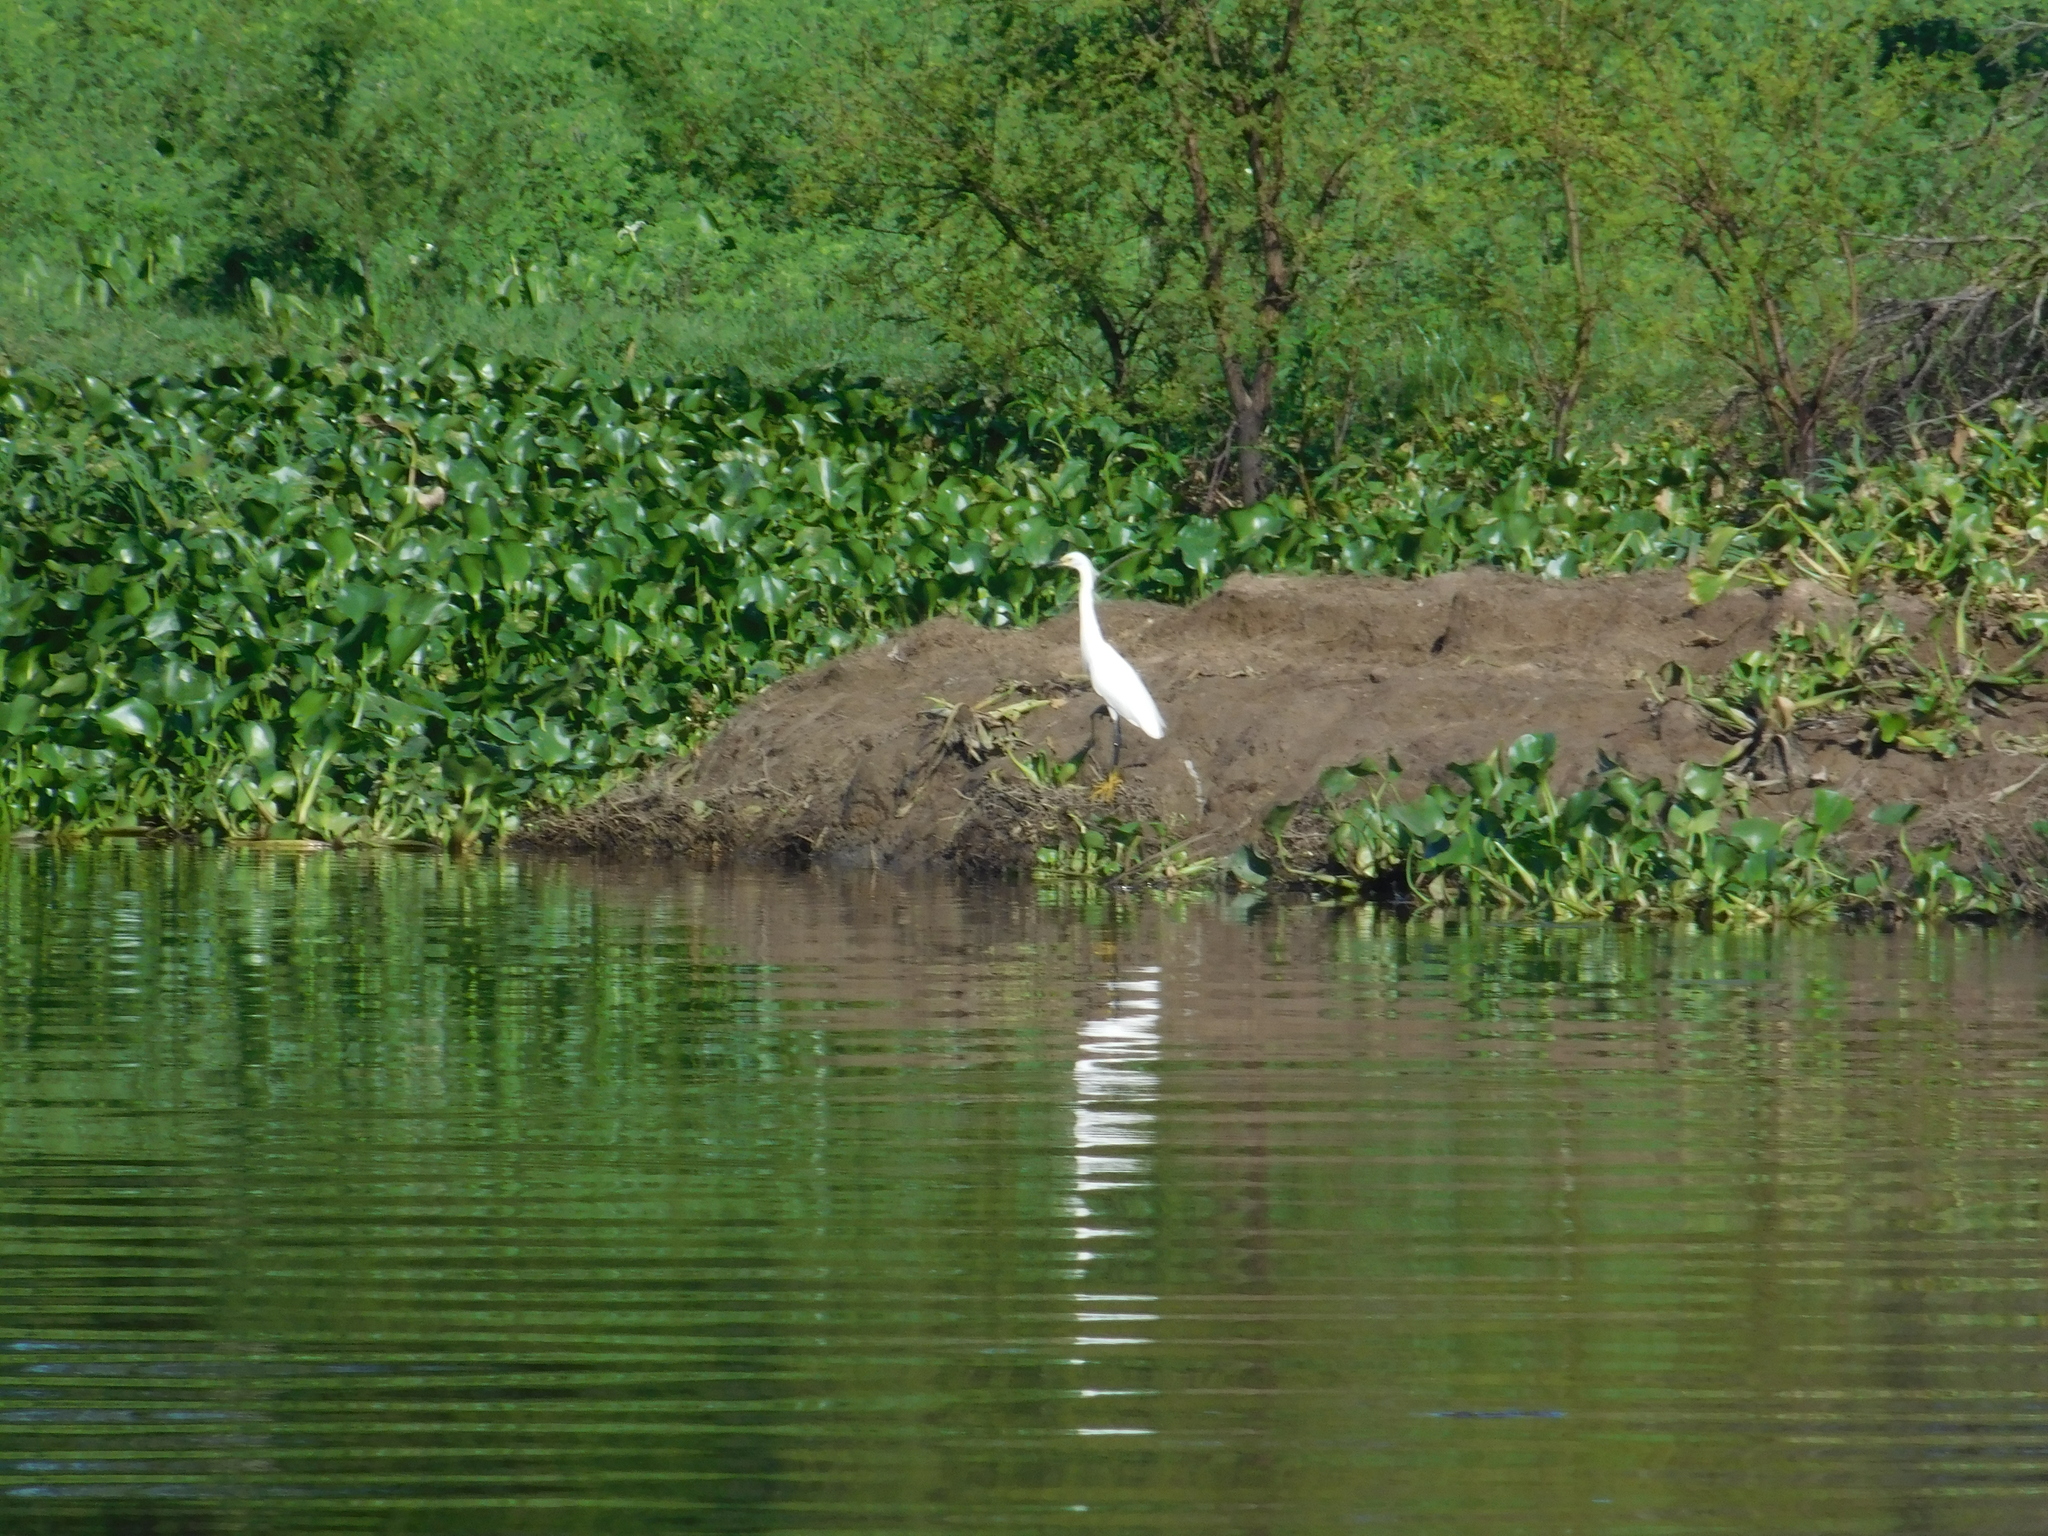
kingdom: Animalia
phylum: Chordata
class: Aves
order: Pelecaniformes
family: Ardeidae
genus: Egretta
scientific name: Egretta thula
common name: Snowy egret
